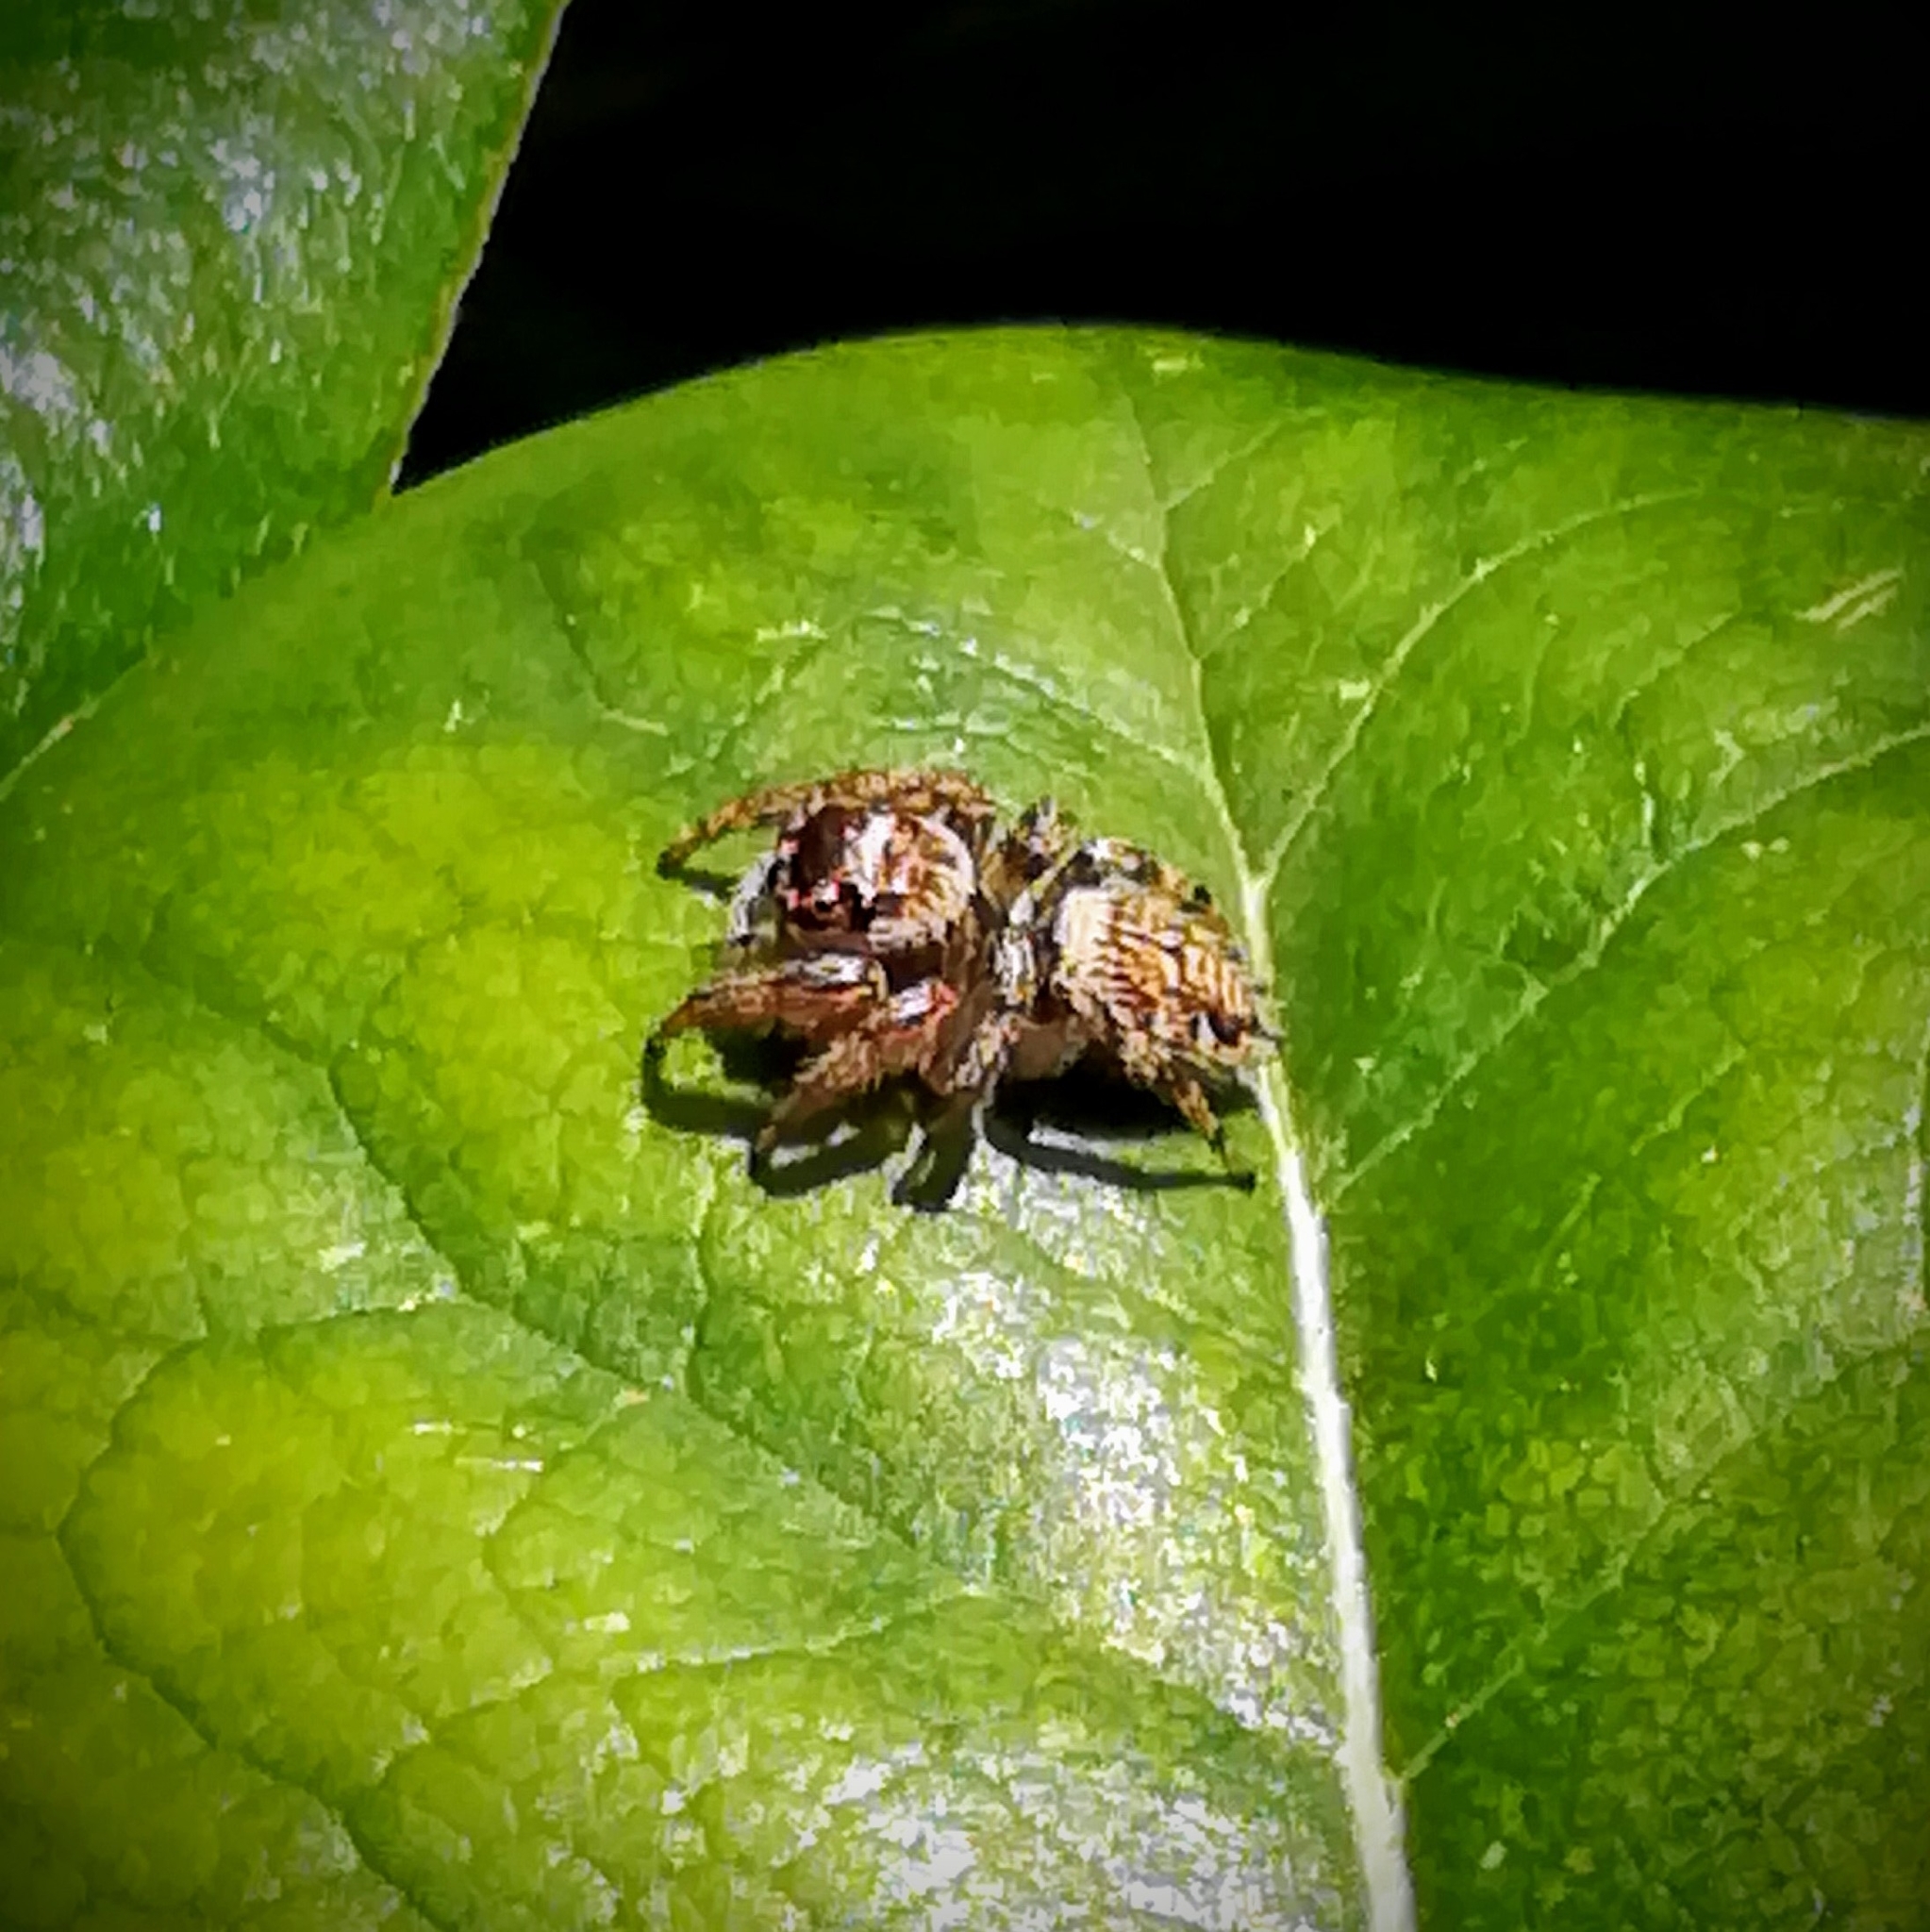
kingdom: Animalia
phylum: Arthropoda
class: Arachnida
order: Araneae
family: Salticidae
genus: Evarcha
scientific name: Evarcha jucunda
